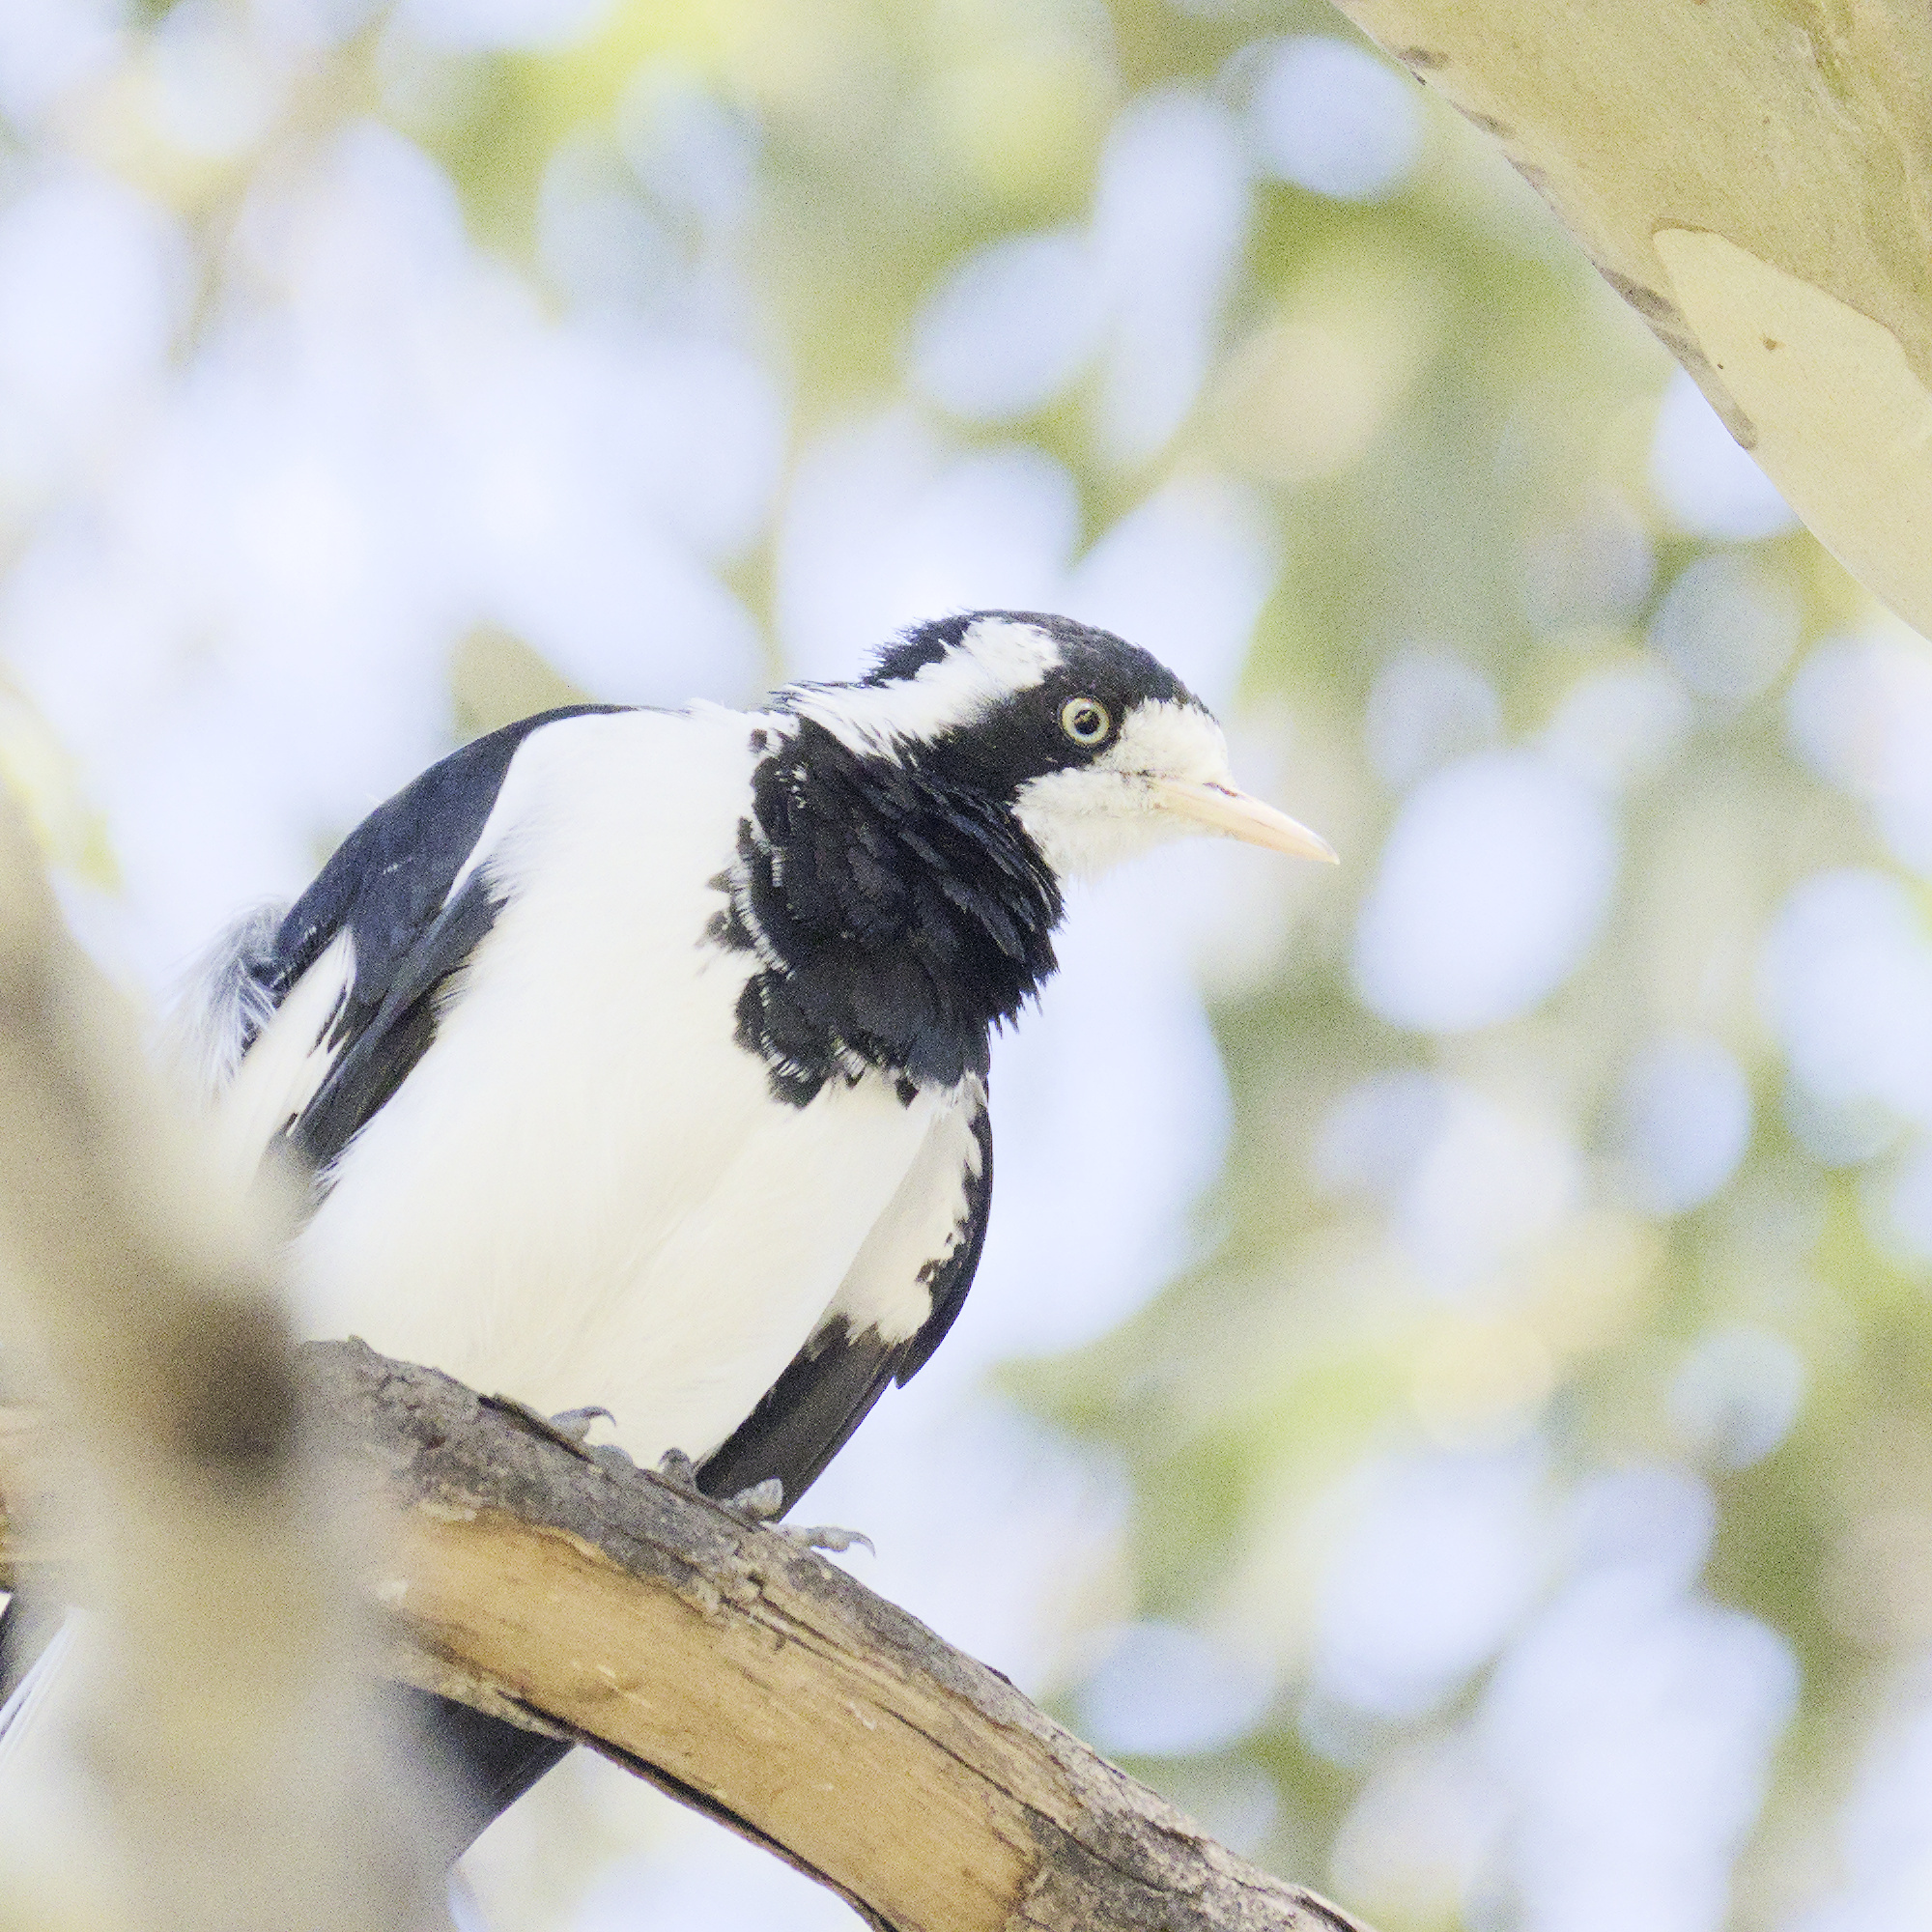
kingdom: Animalia
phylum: Chordata
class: Aves
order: Passeriformes
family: Monarchidae
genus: Grallina
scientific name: Grallina cyanoleuca
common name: Magpie-lark
